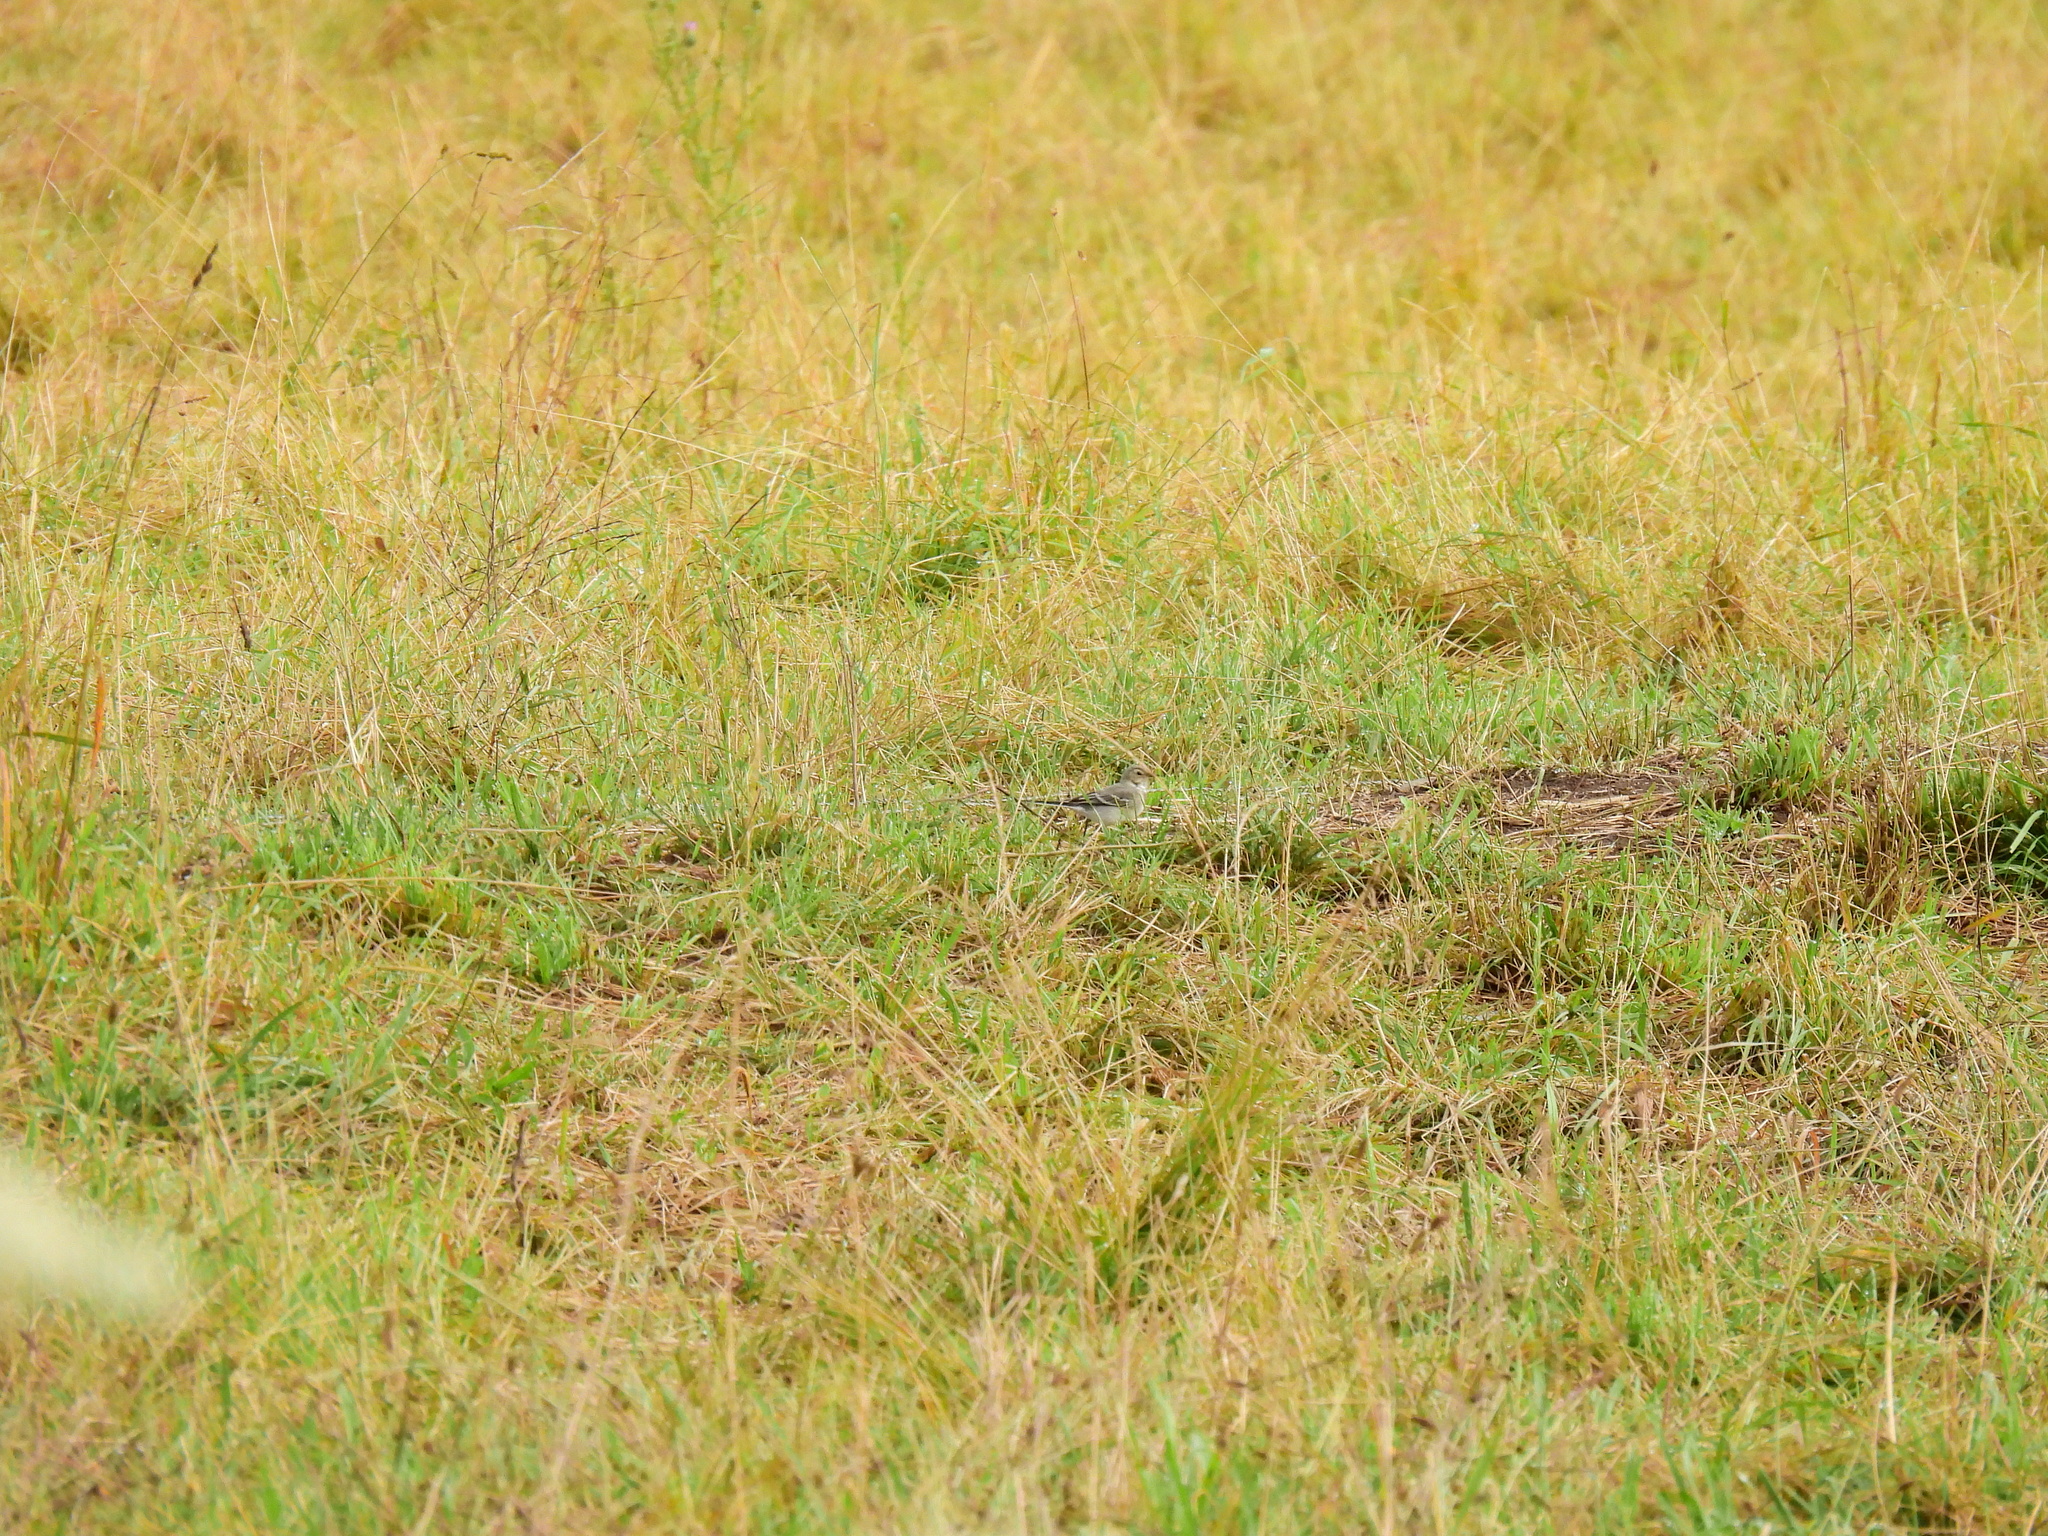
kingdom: Animalia
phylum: Chordata
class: Aves
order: Passeriformes
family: Motacillidae
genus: Motacilla
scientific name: Motacilla alba
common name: White wagtail
